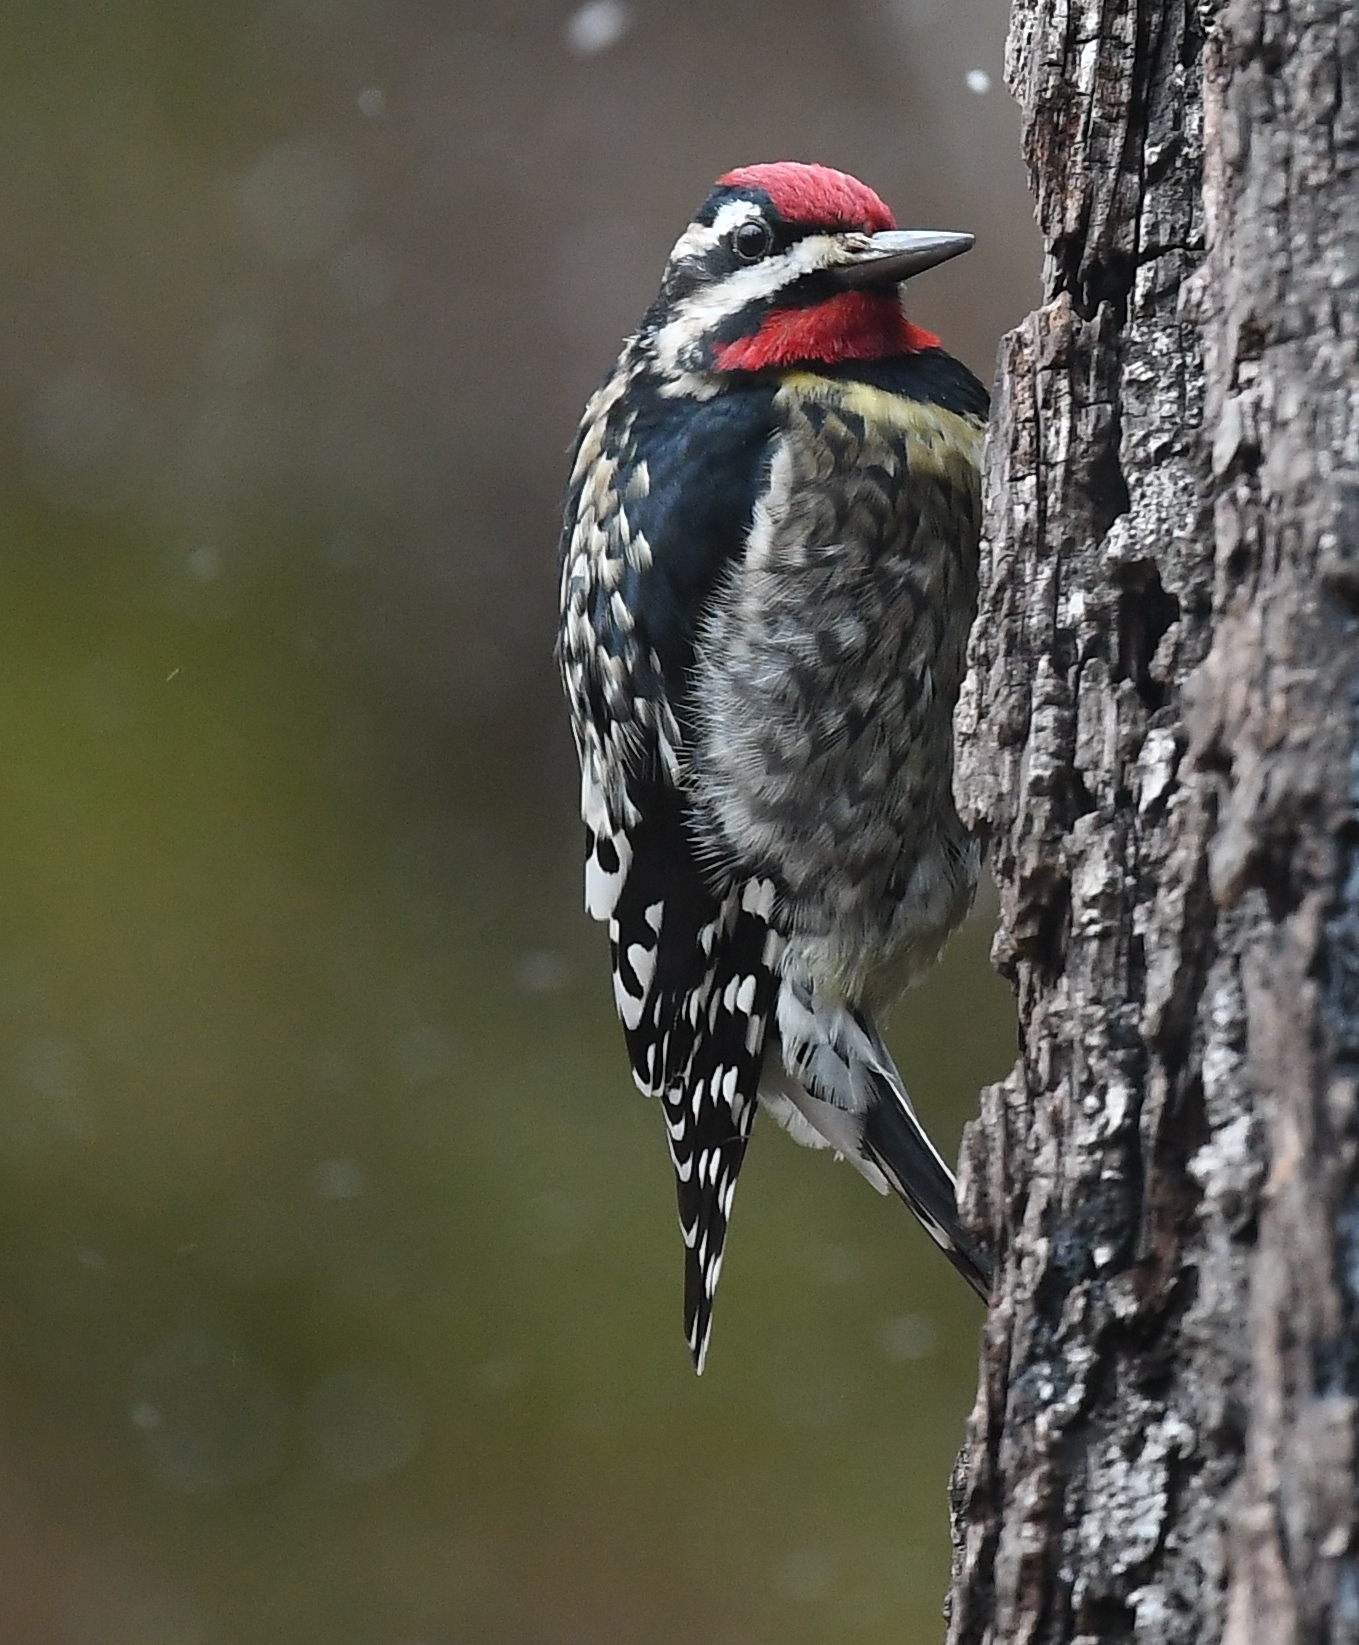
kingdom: Animalia
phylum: Chordata
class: Aves
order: Piciformes
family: Picidae
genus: Sphyrapicus
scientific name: Sphyrapicus varius
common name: Yellow-bellied sapsucker
